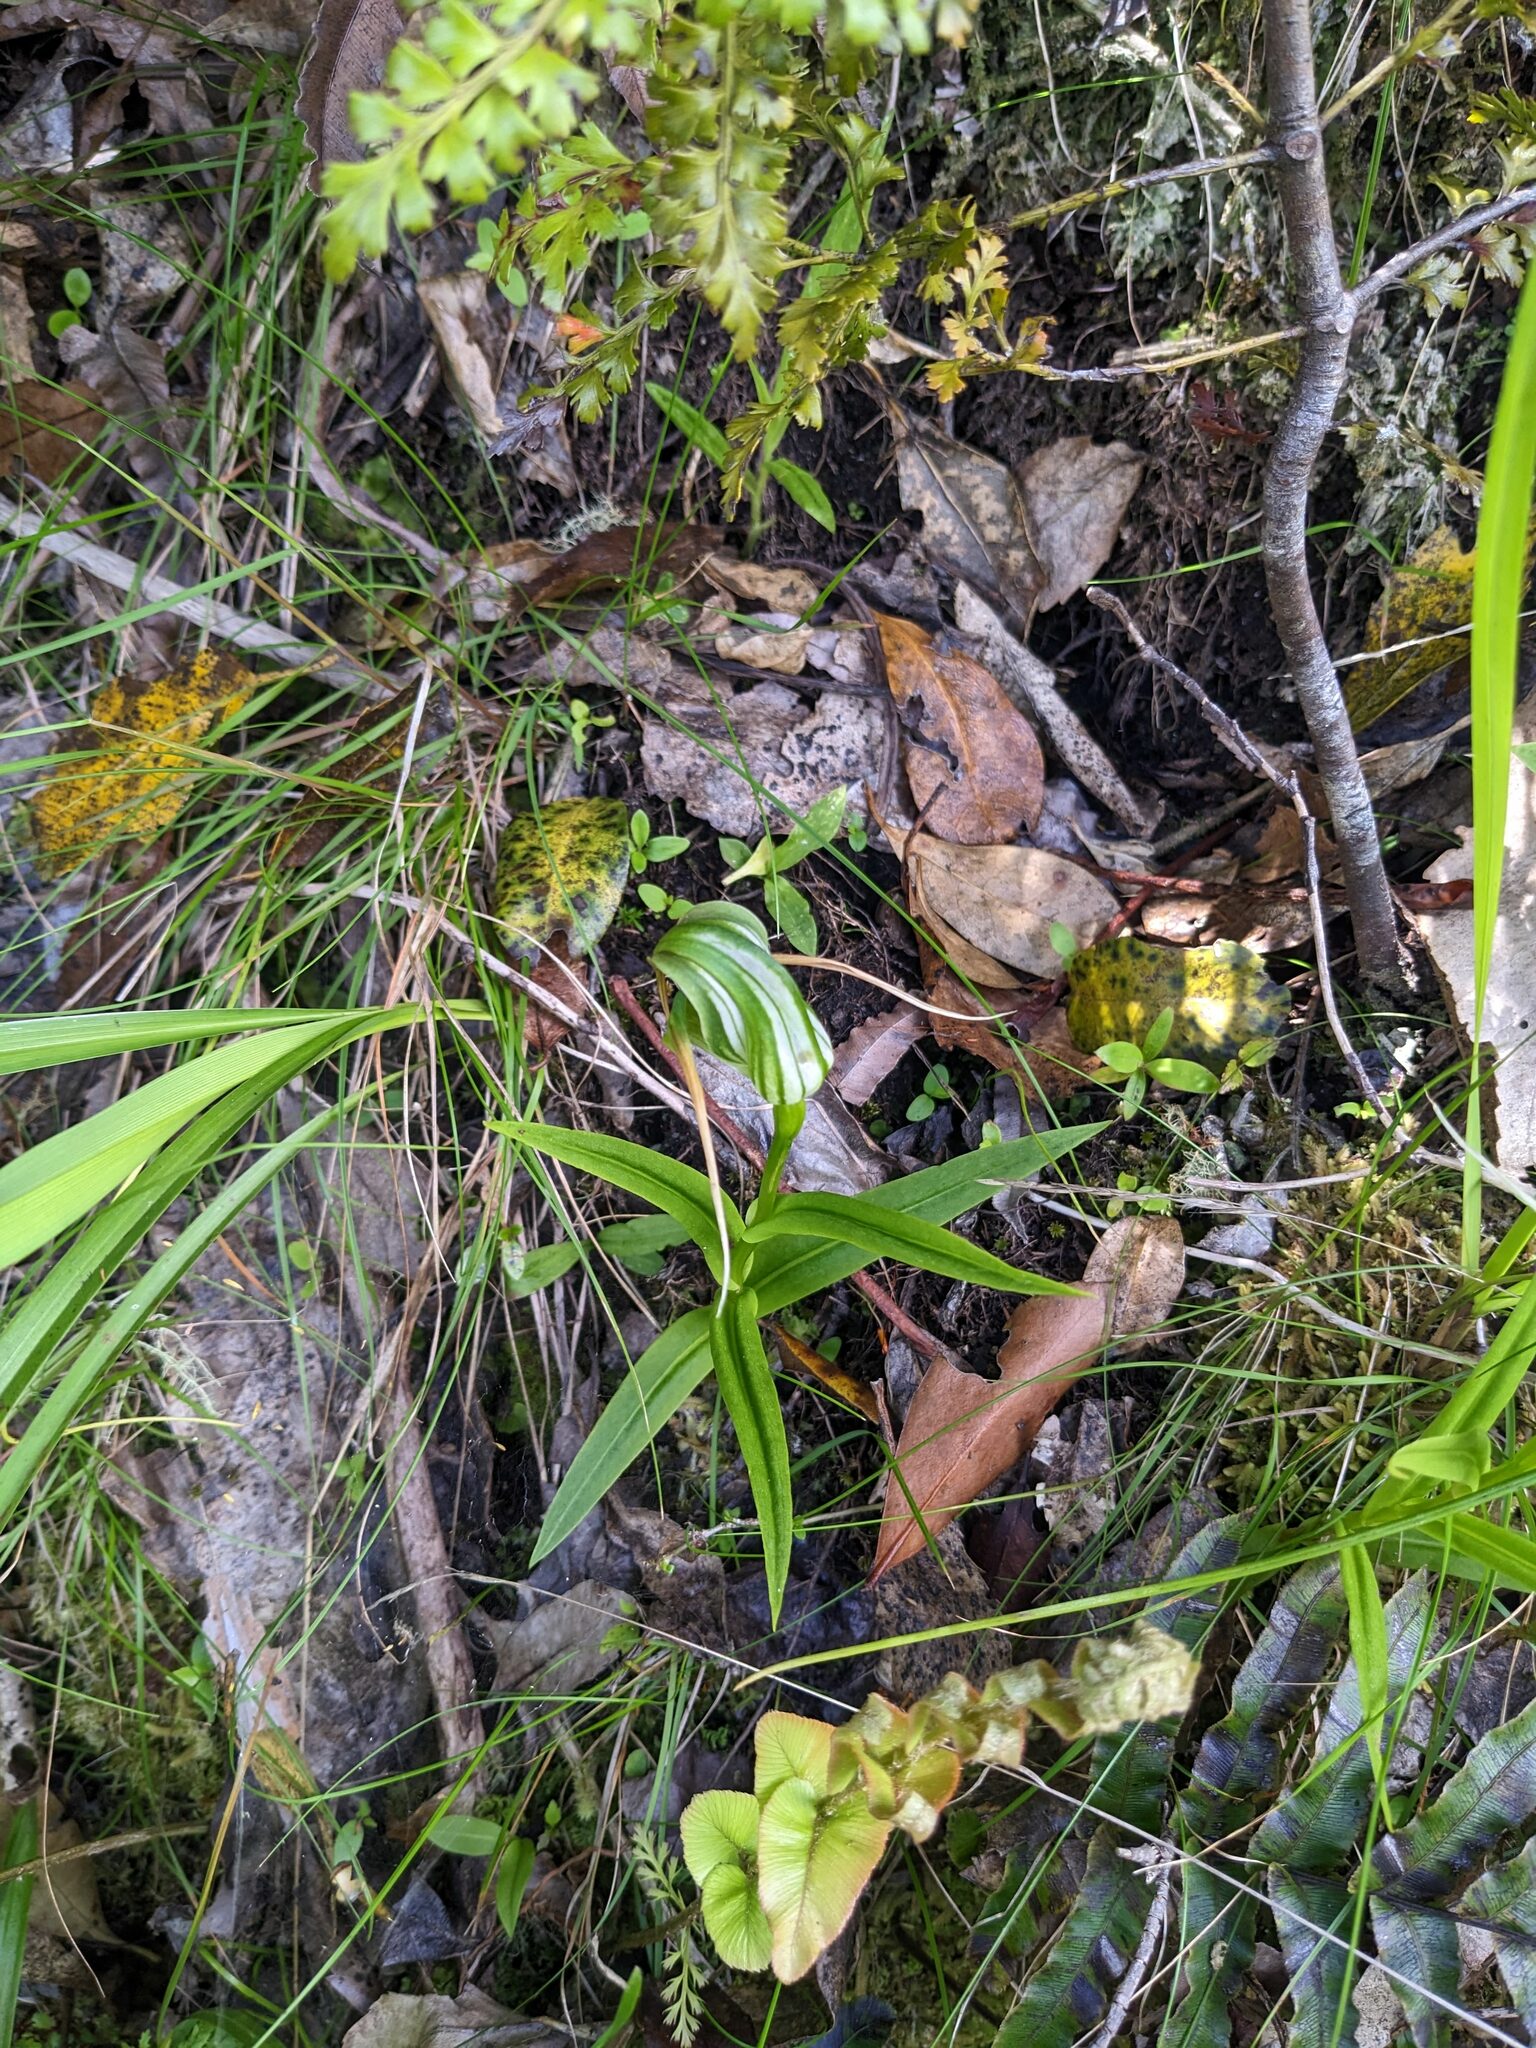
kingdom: Plantae
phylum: Tracheophyta
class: Liliopsida
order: Asparagales
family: Orchidaceae
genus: Pterostylis
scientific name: Pterostylis patens
